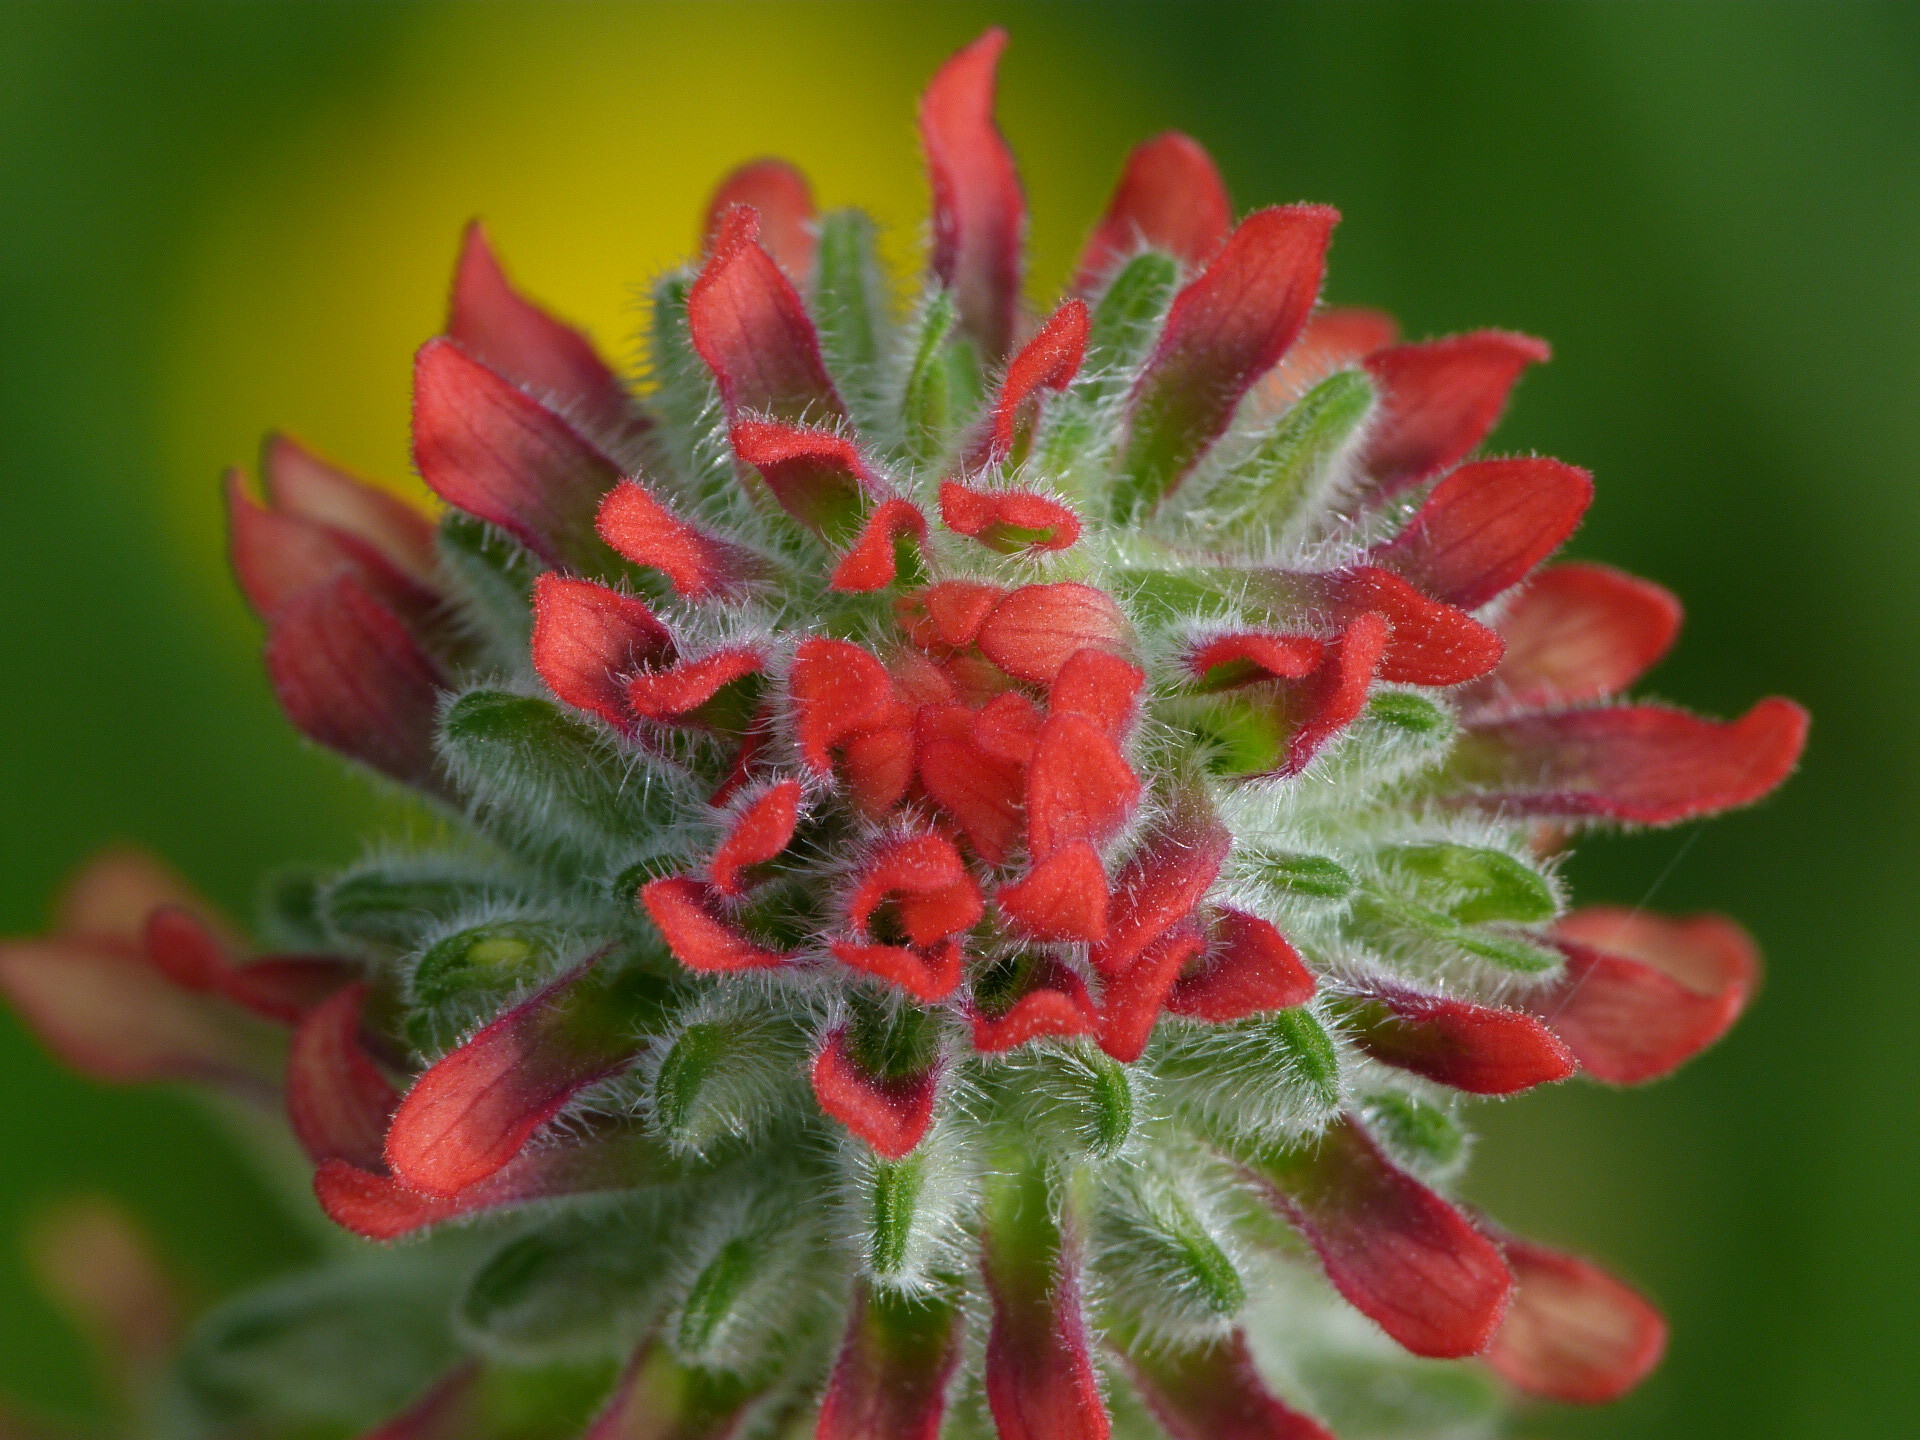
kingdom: Plantae
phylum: Tracheophyta
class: Magnoliopsida
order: Lamiales
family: Orobanchaceae
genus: Castilleja
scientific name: Castilleja arvensis
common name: Indian paintbrush
